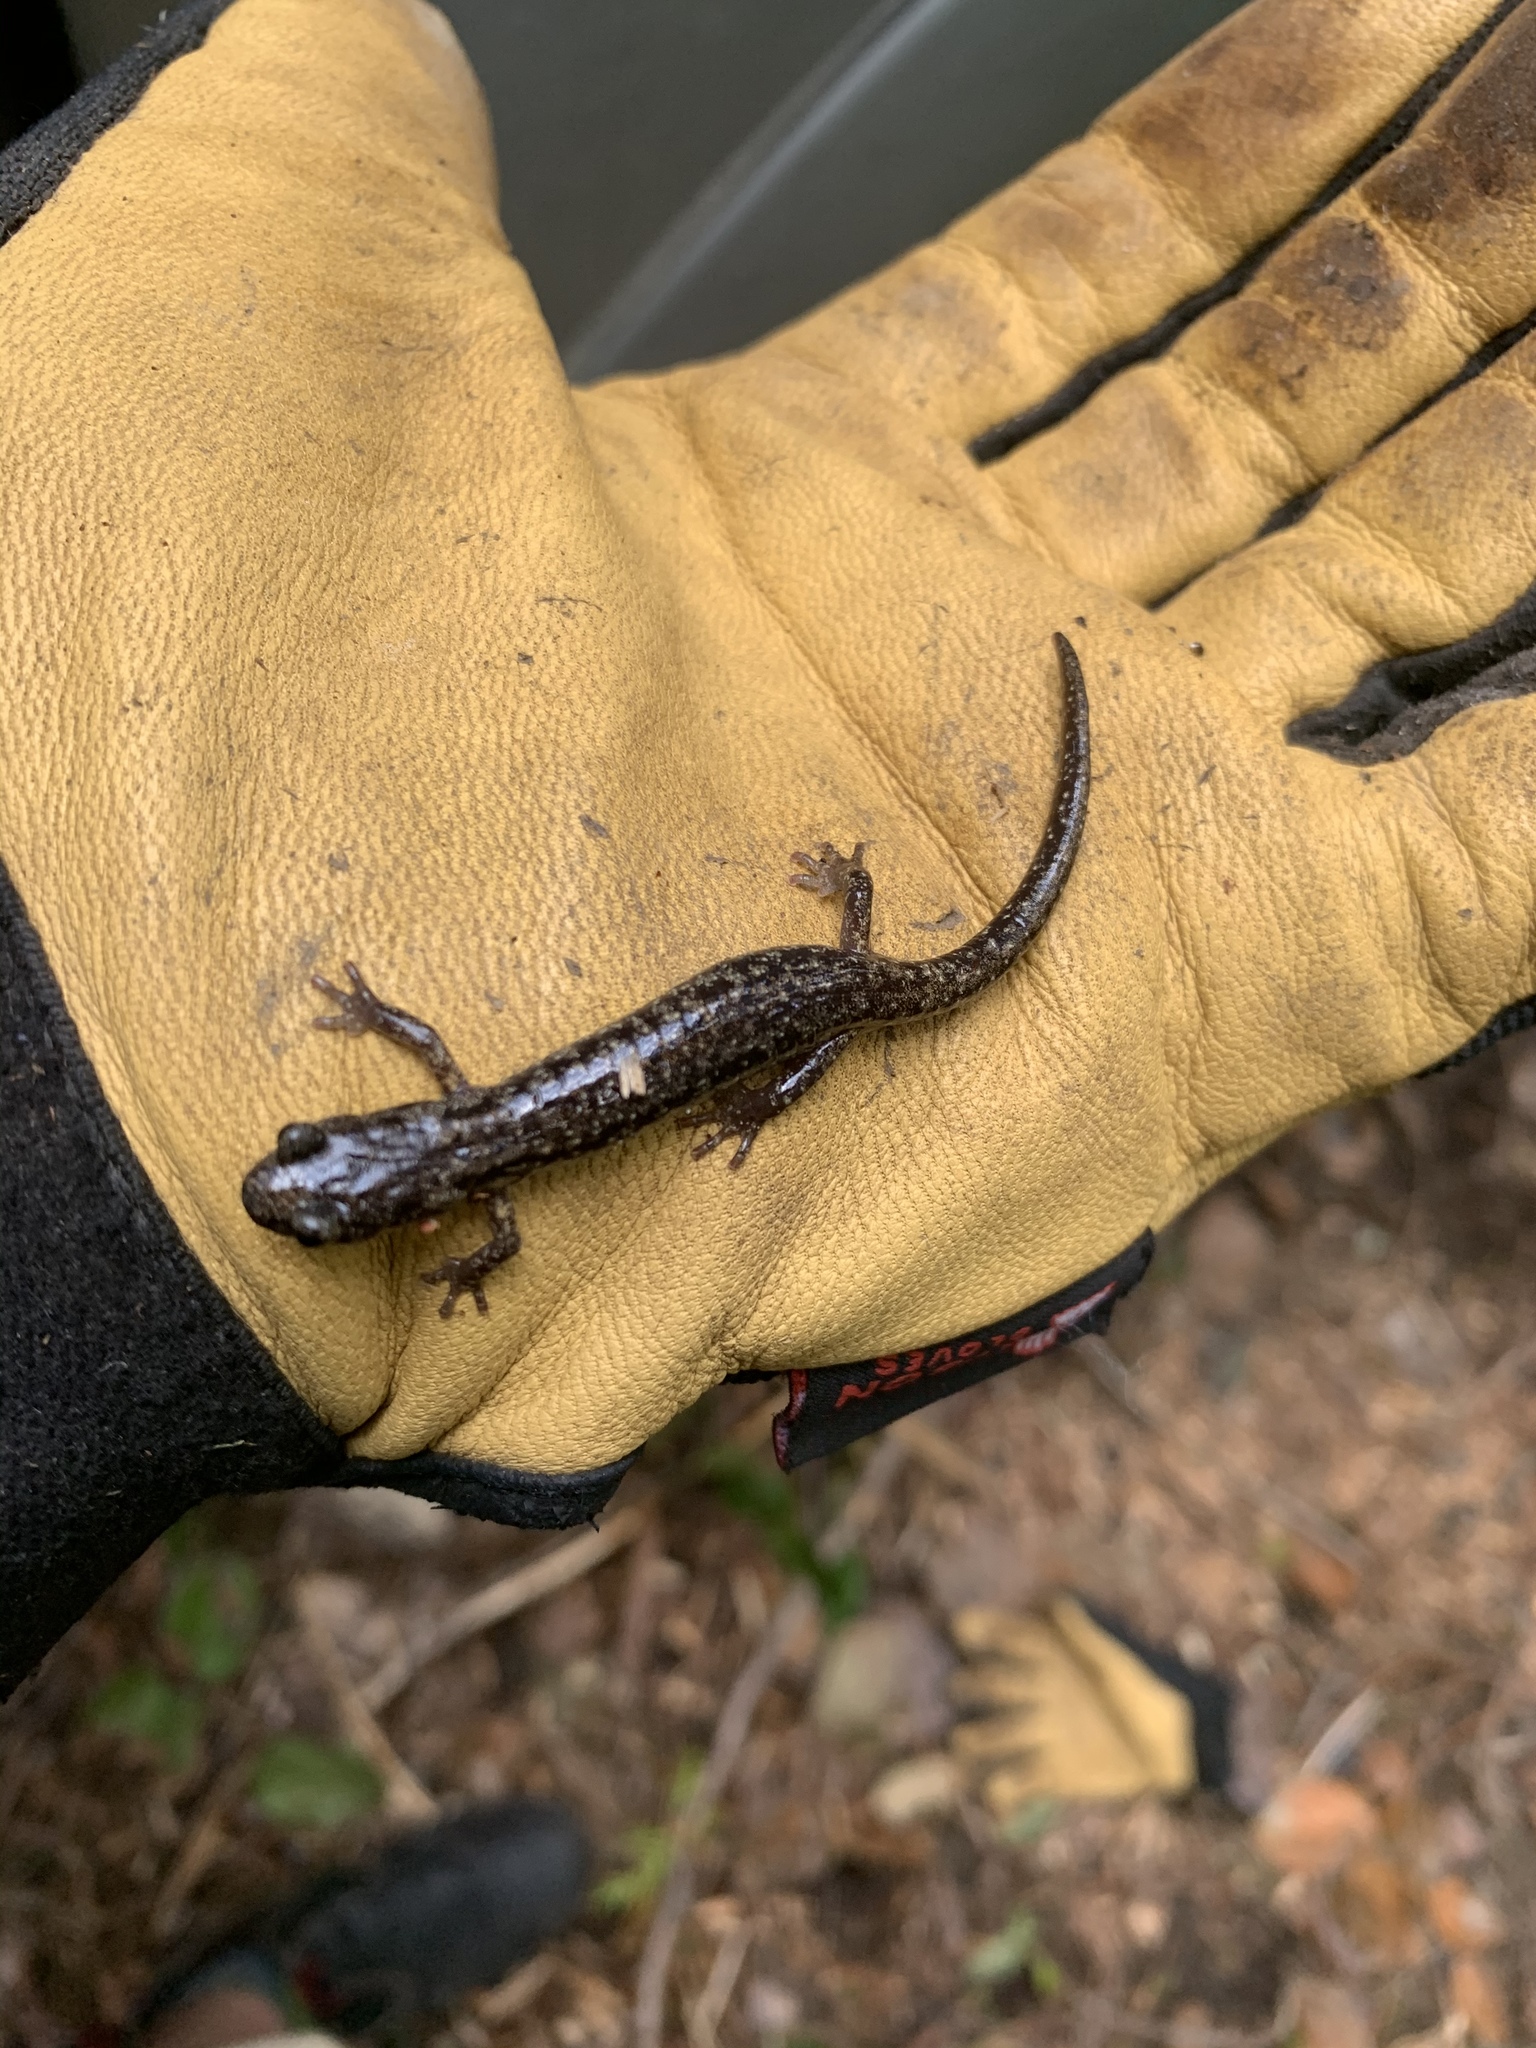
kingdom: Animalia
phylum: Chordata
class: Amphibia
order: Caudata
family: Plethodontidae
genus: Aneides
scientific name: Aneides vagrans
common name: Wandering salamander
